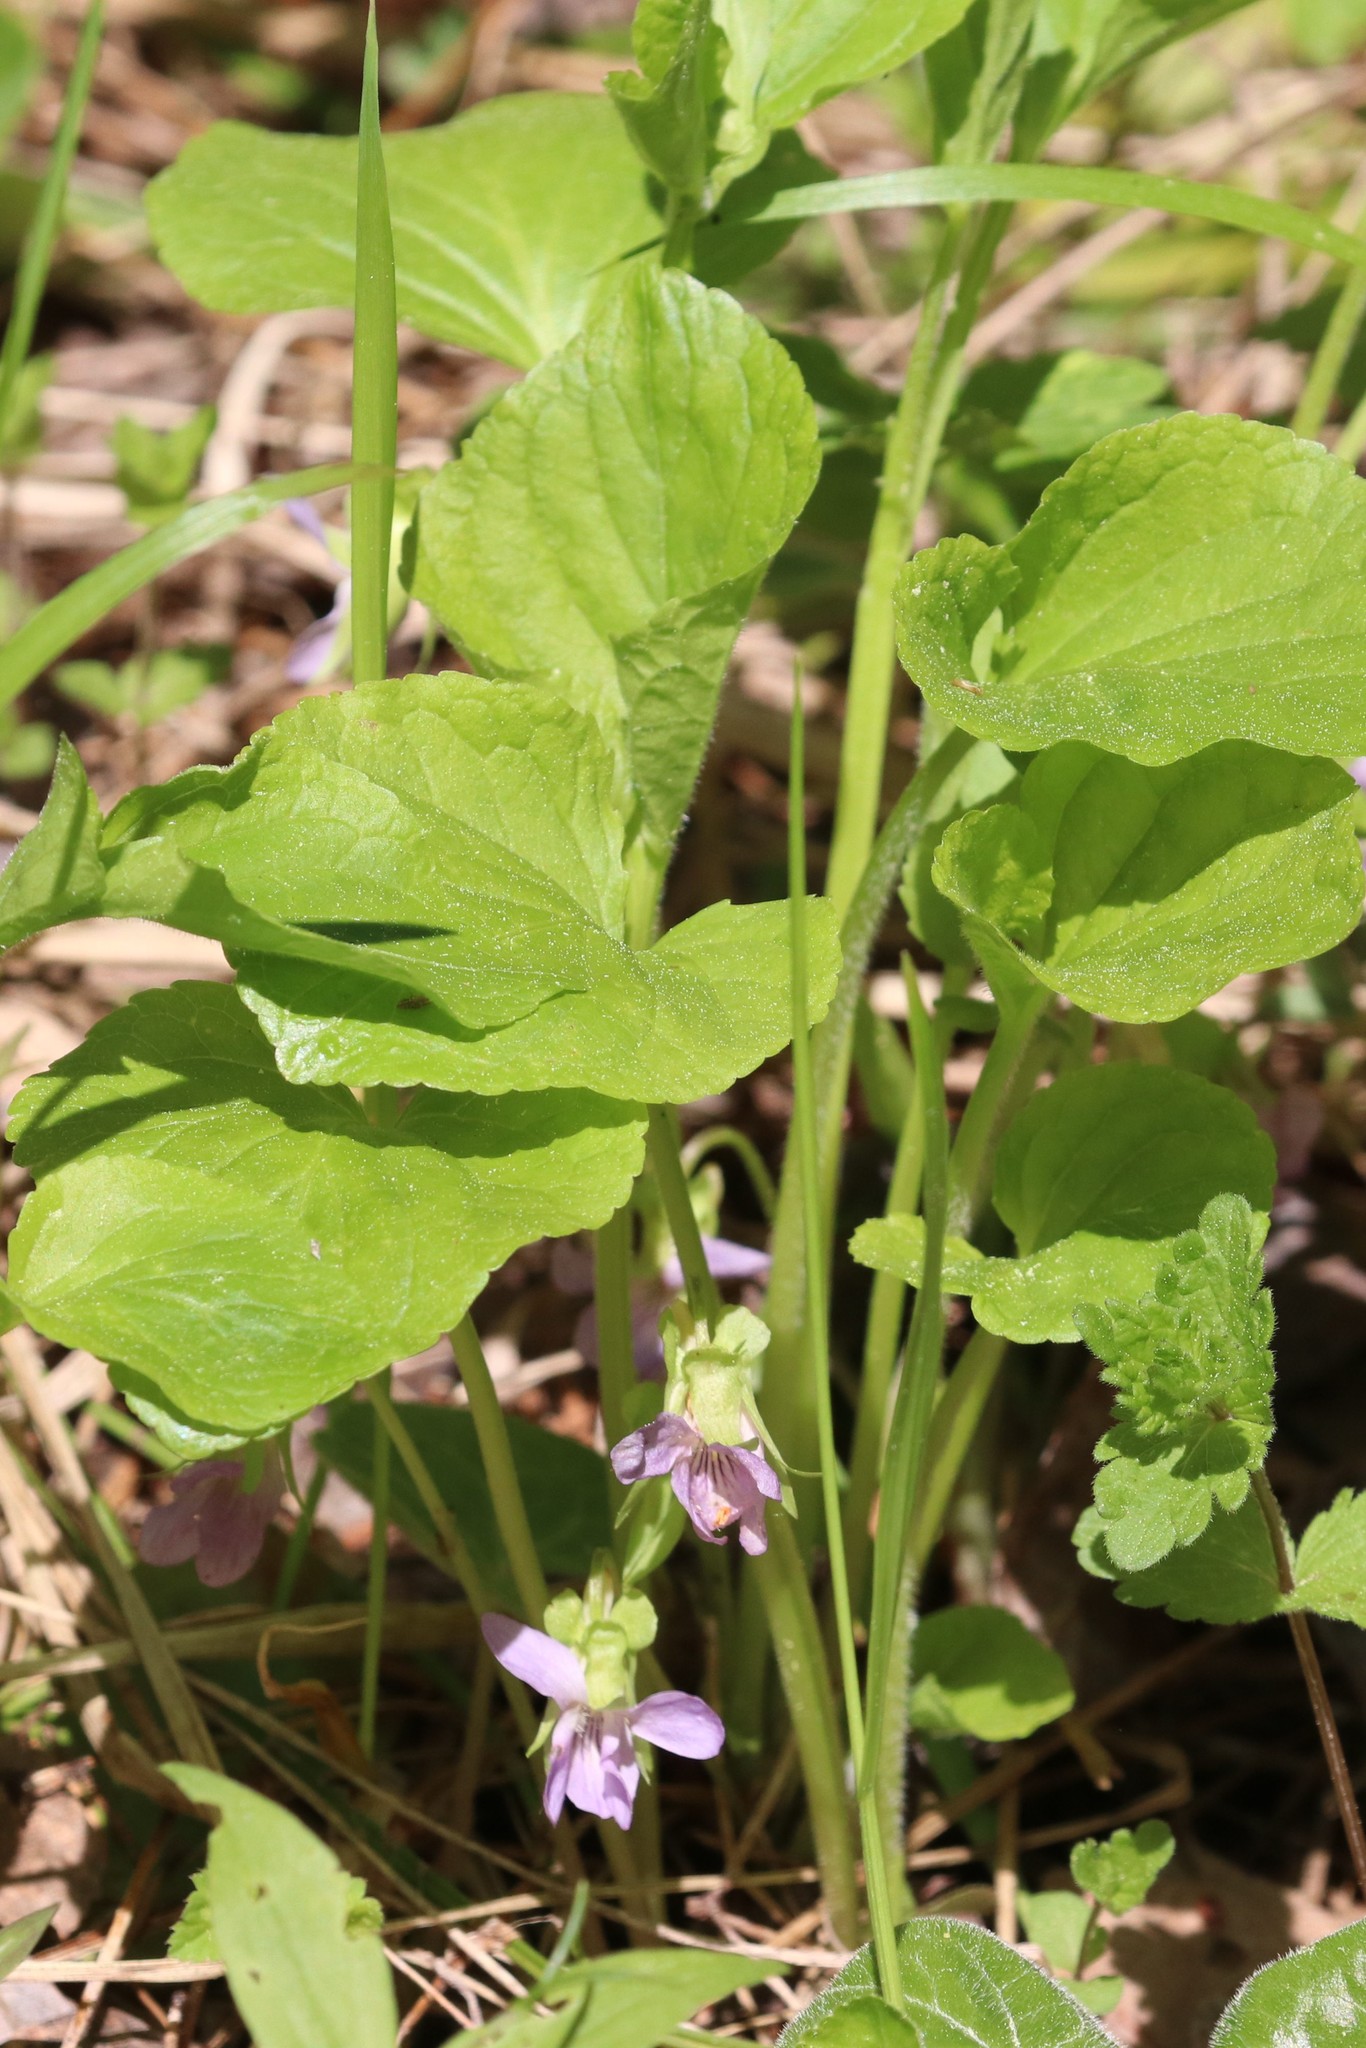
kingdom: Plantae
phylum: Tracheophyta
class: Magnoliopsida
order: Malpighiales
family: Violaceae
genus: Viola
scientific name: Viola mirabilis
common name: Wonder violet
